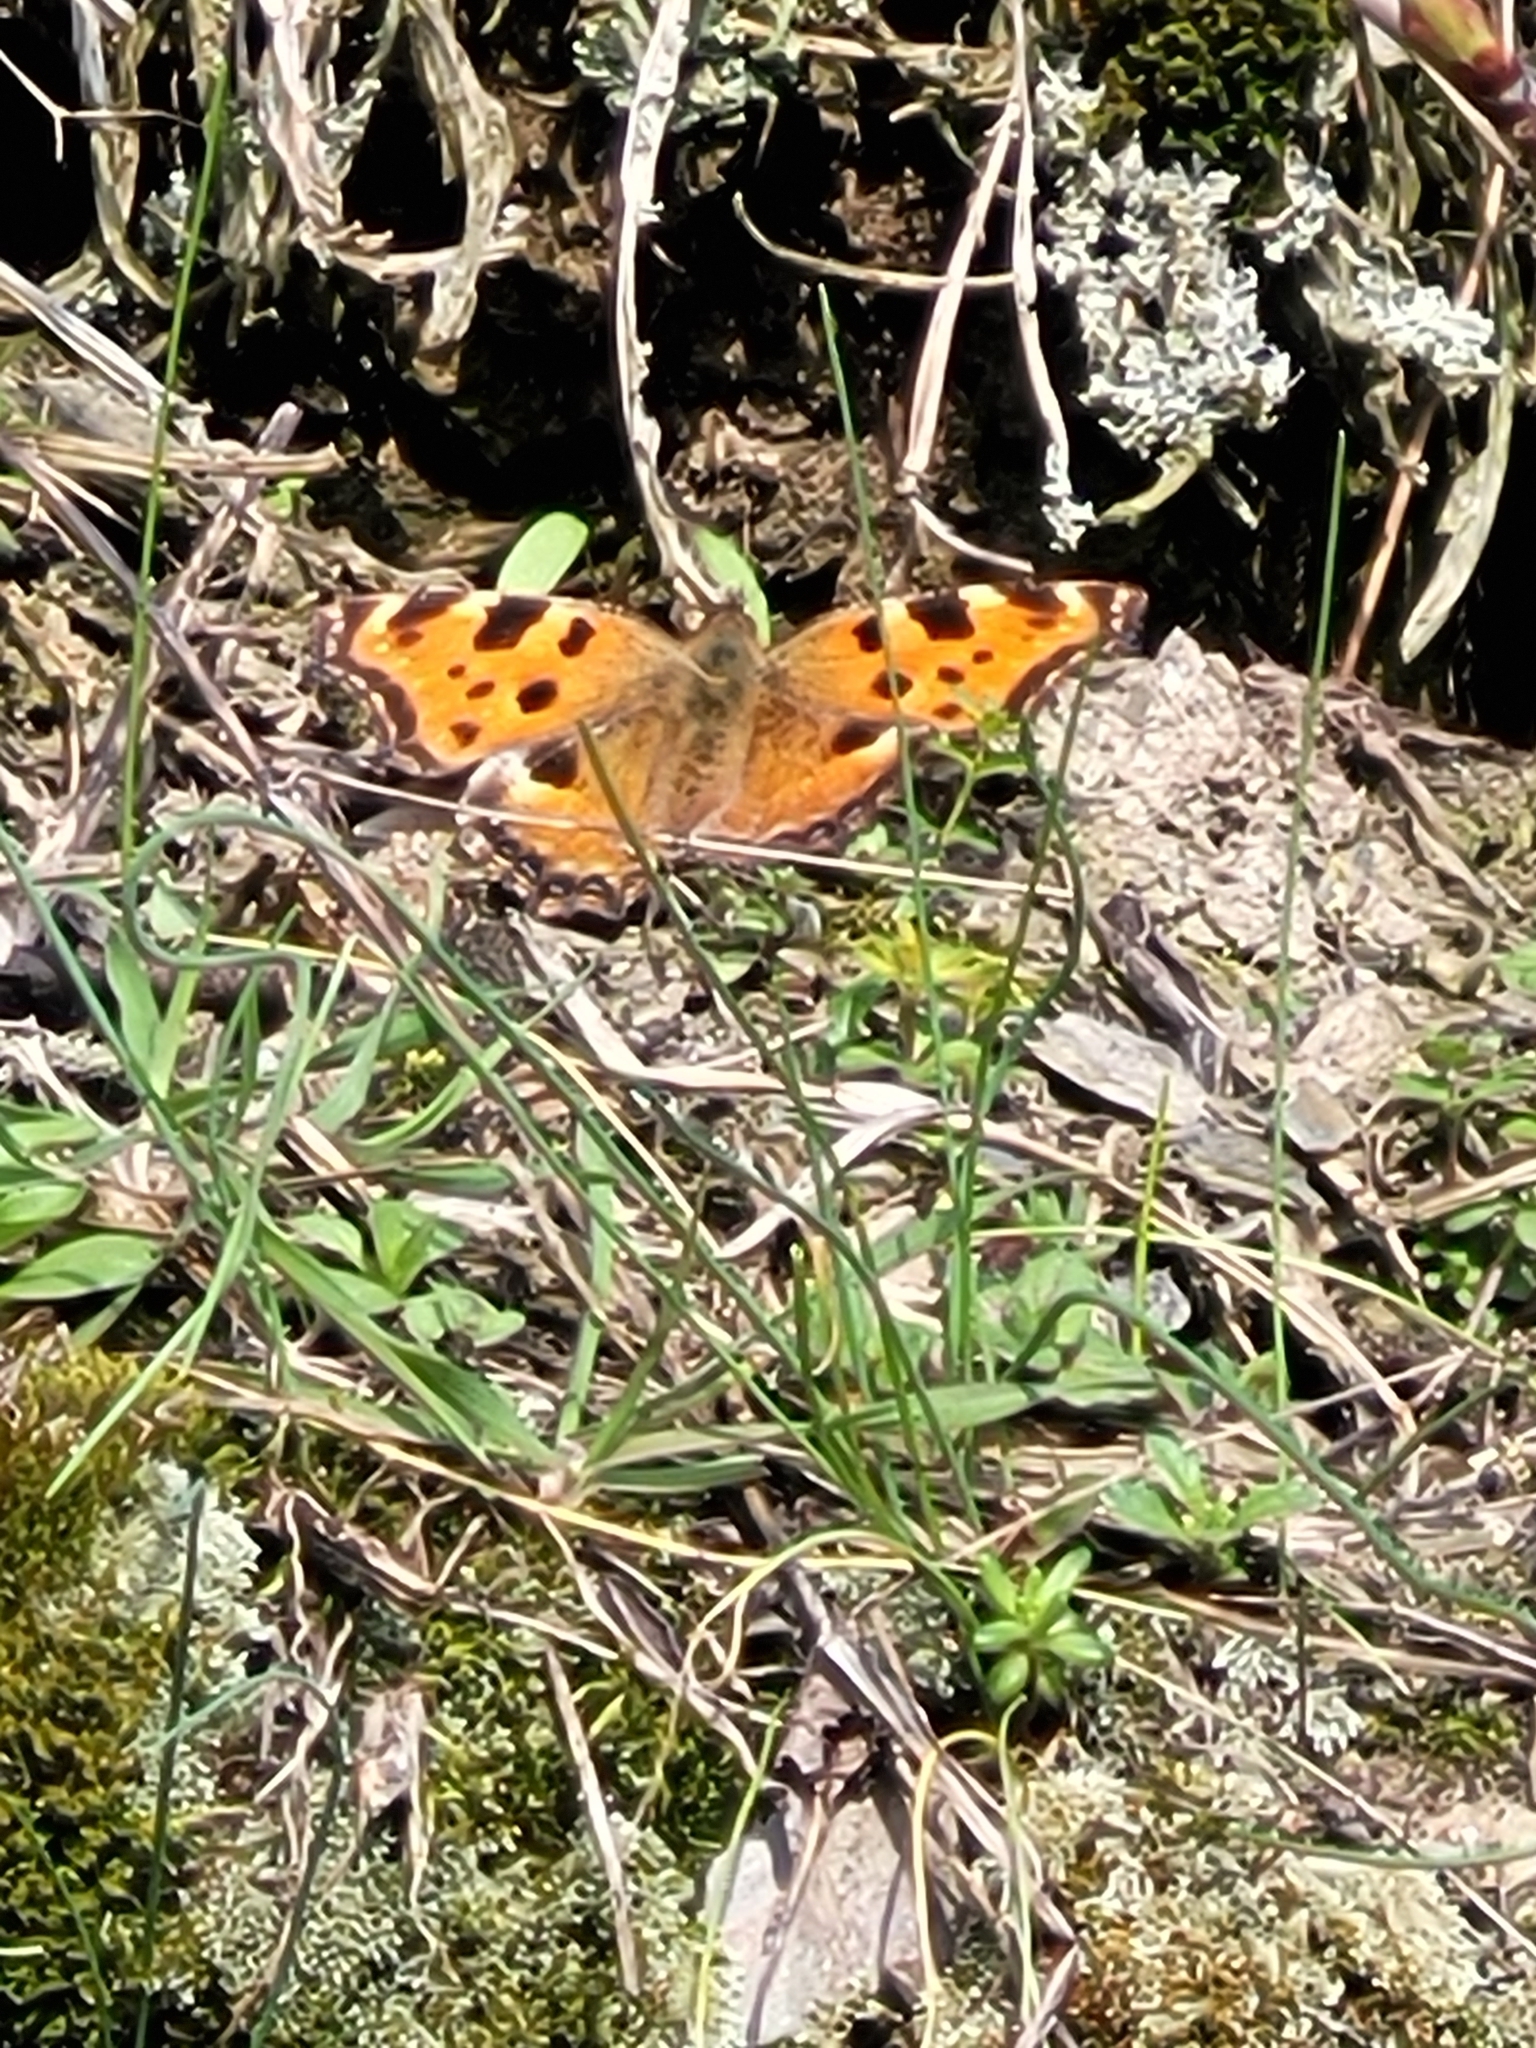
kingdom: Animalia
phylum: Arthropoda
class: Insecta
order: Lepidoptera
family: Nymphalidae
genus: Nymphalis
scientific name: Nymphalis polychloros
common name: Large tortoiseshell
